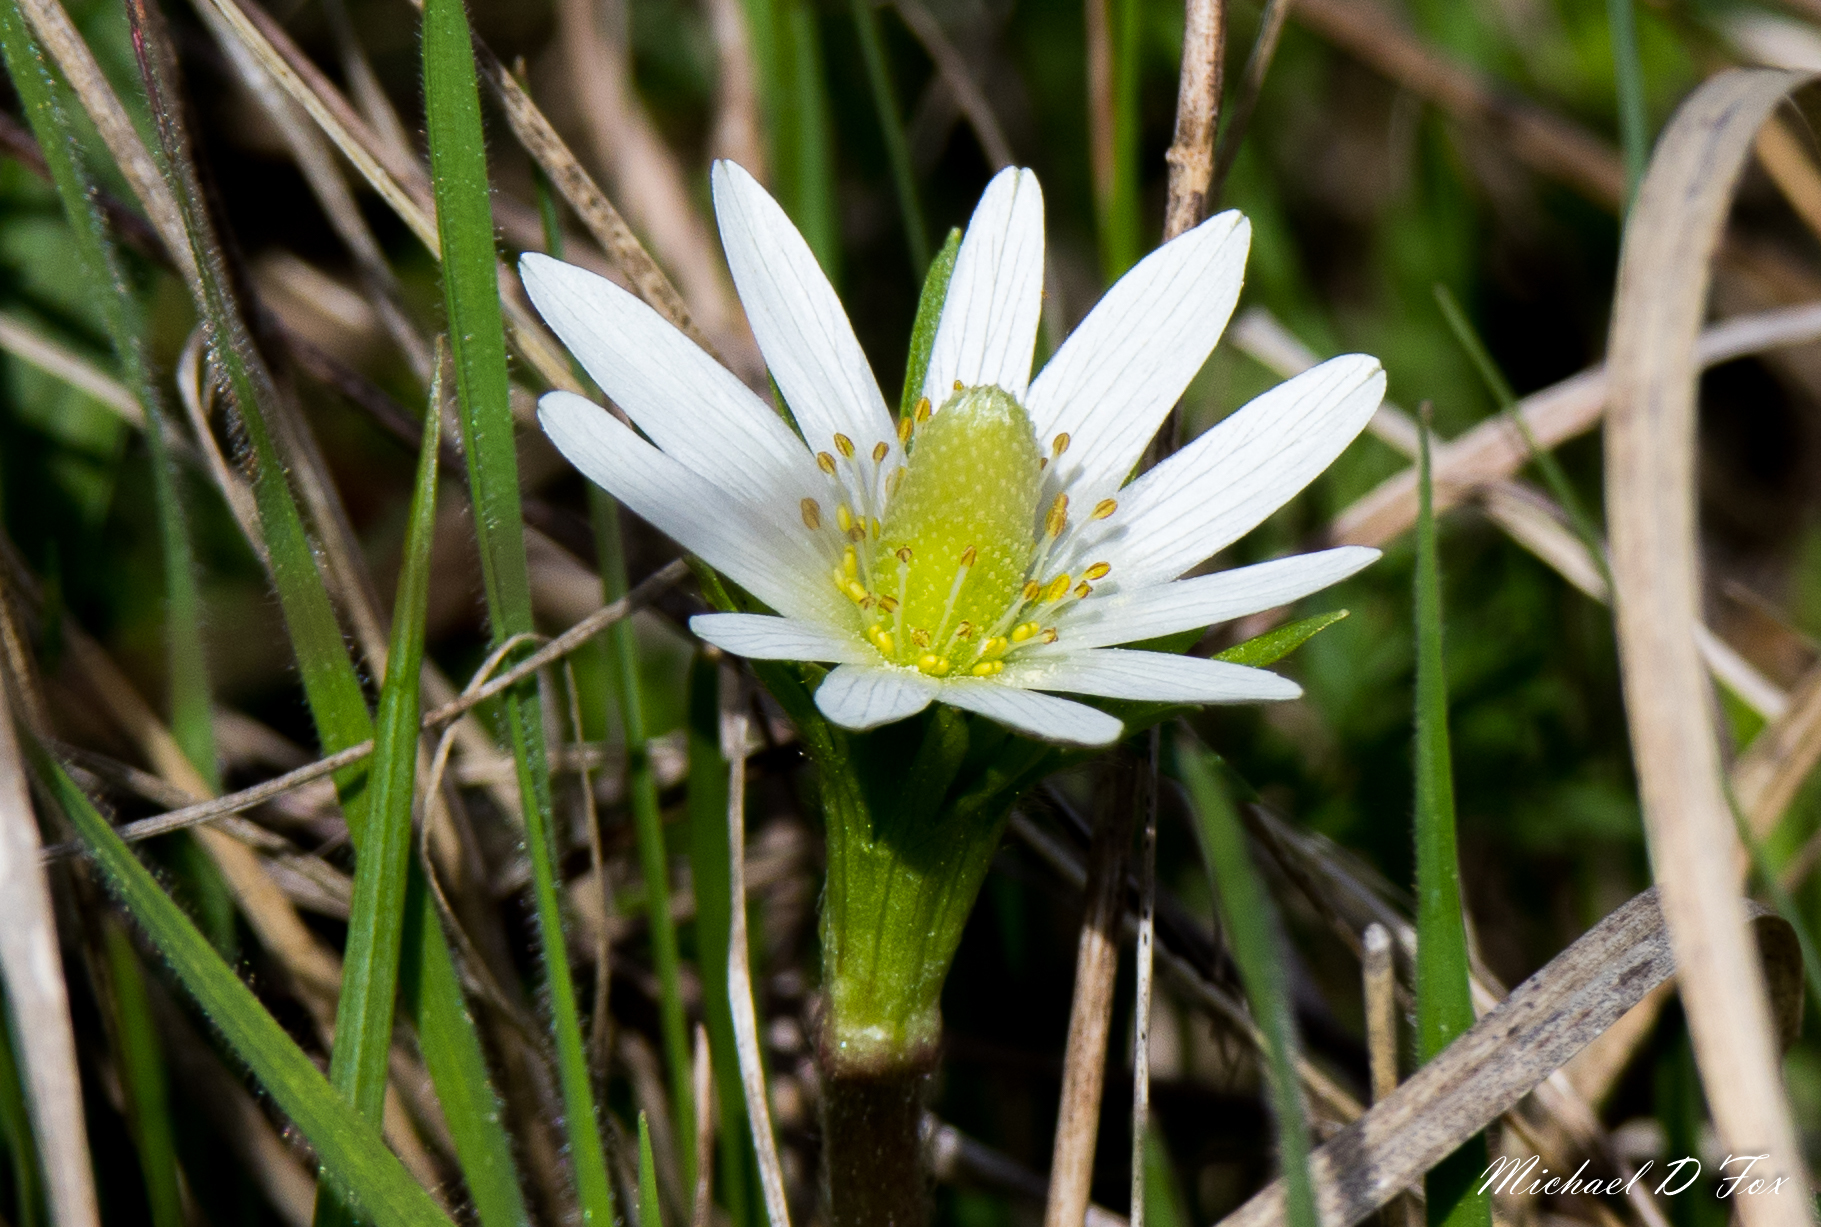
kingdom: Plantae
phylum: Tracheophyta
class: Magnoliopsida
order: Ranunculales
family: Ranunculaceae
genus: Anemone
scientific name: Anemone berlandieri
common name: Ten-petal anemone
